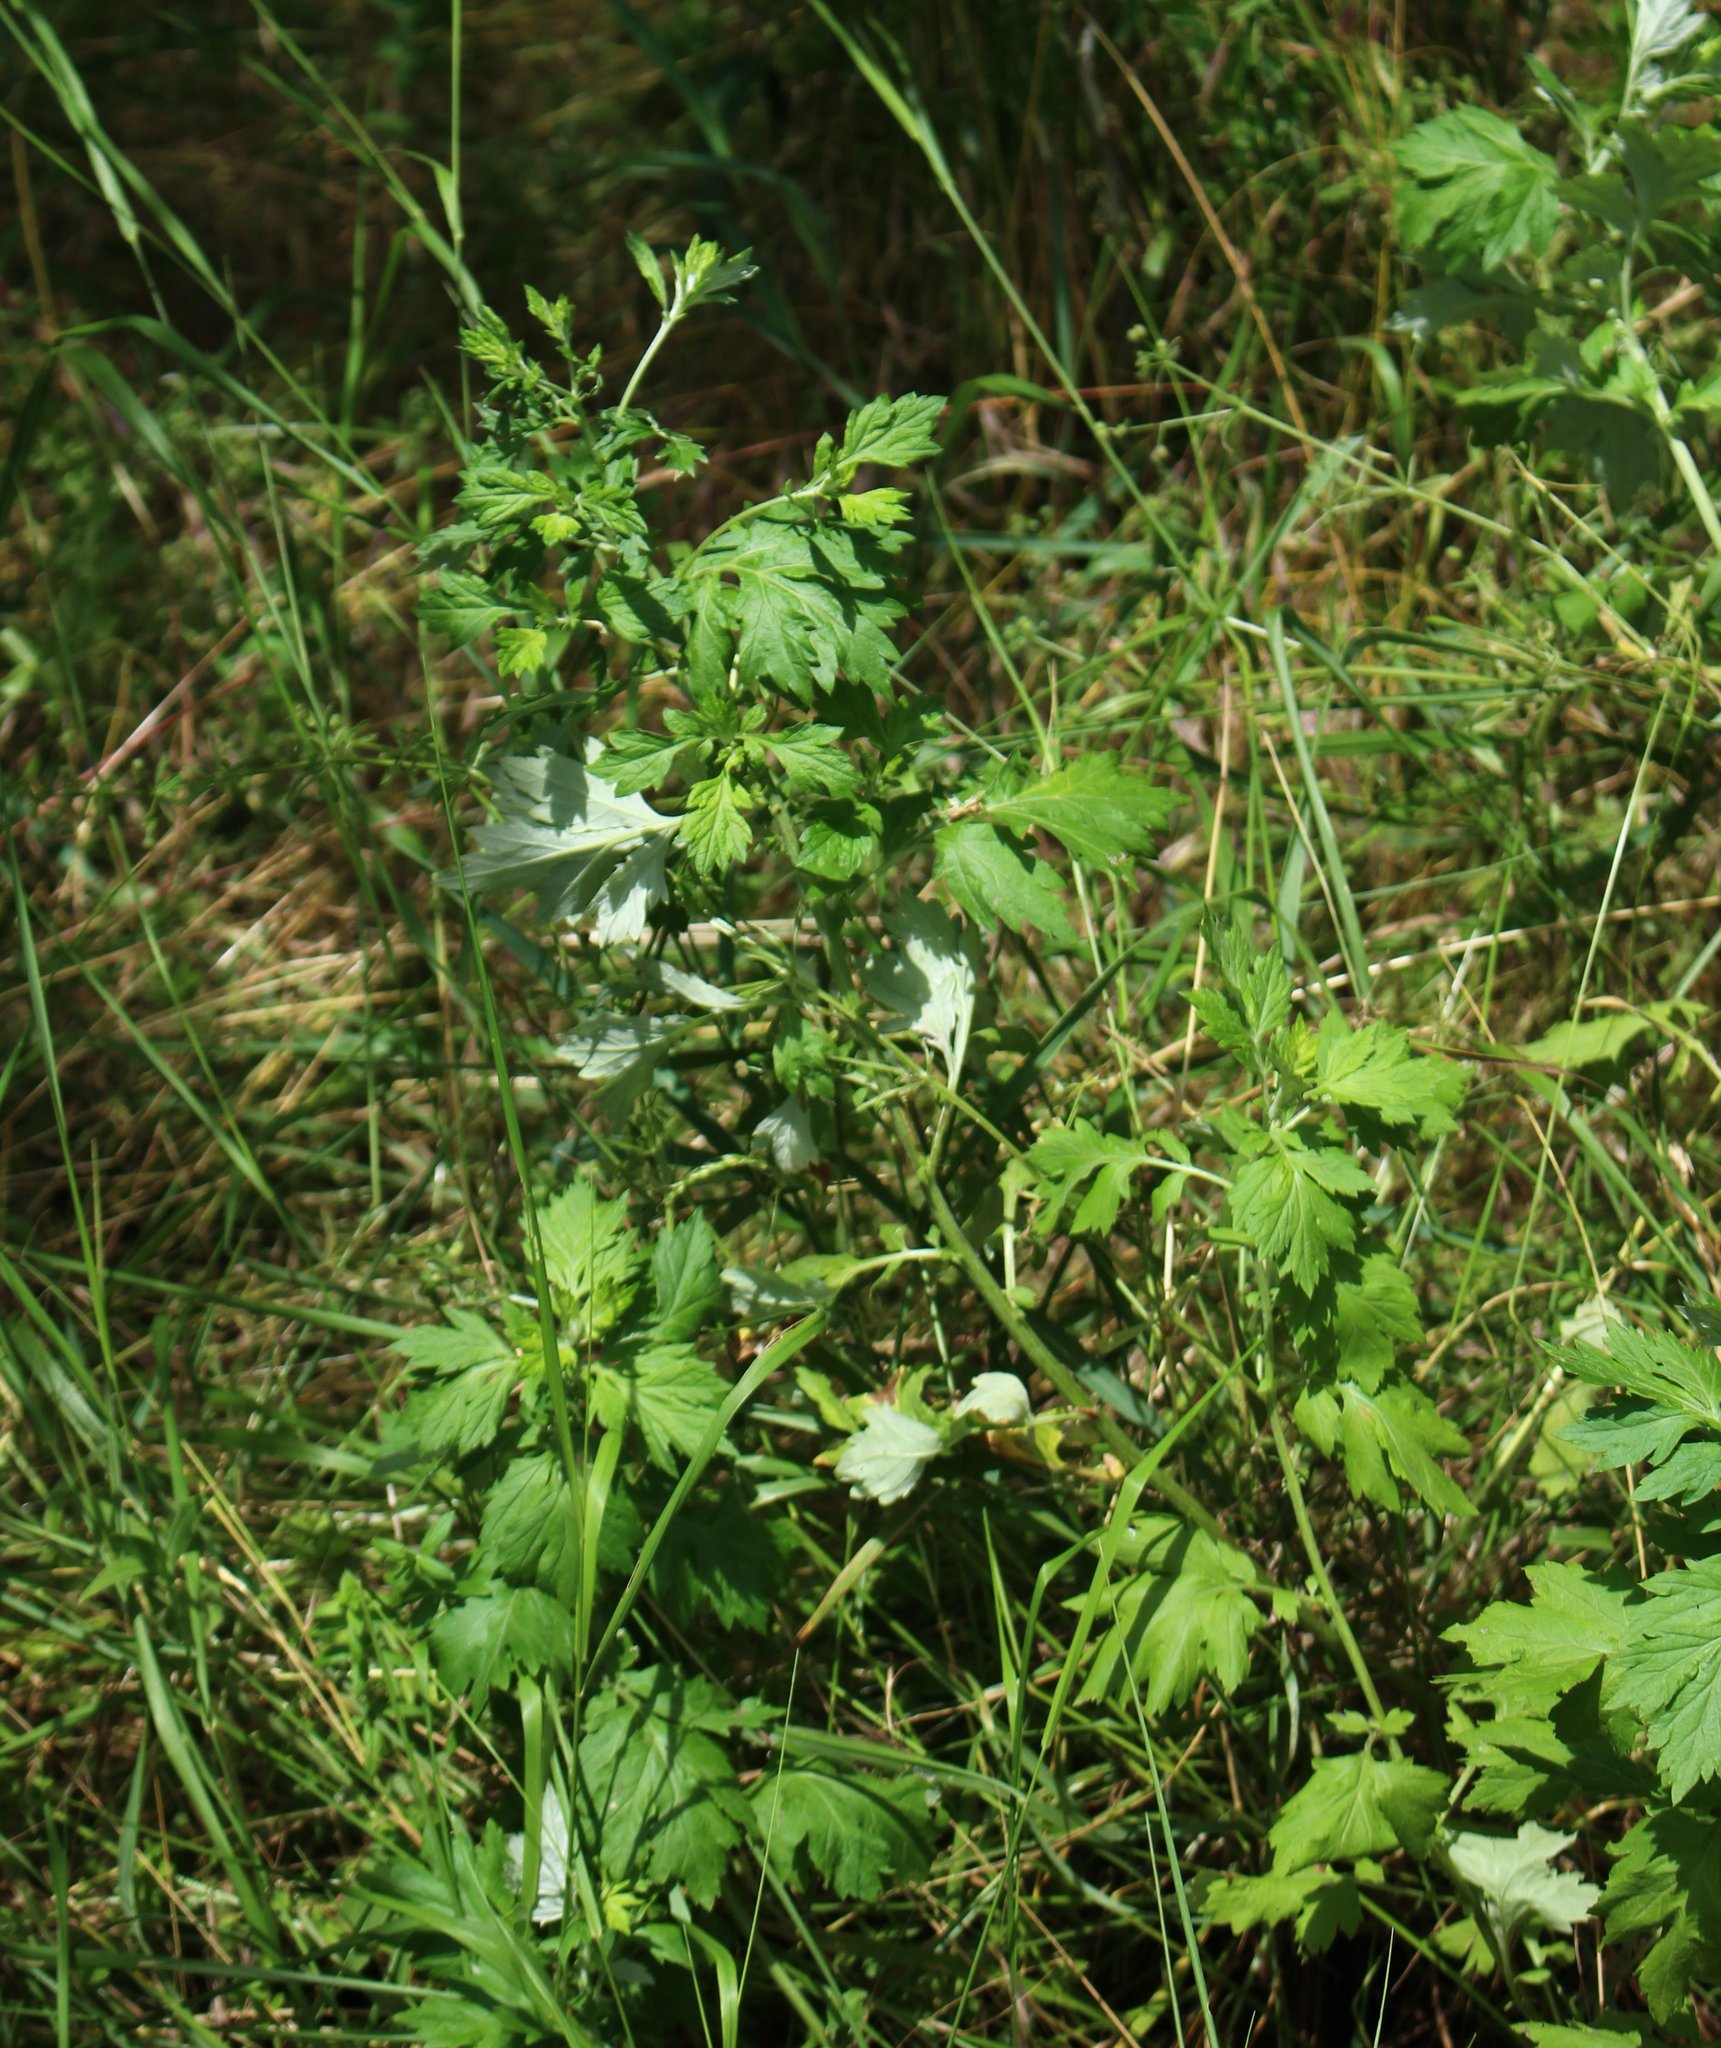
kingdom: Plantae
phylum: Tracheophyta
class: Magnoliopsida
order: Asterales
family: Asteraceae
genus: Artemisia
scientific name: Artemisia vulgaris
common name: Mugwort
